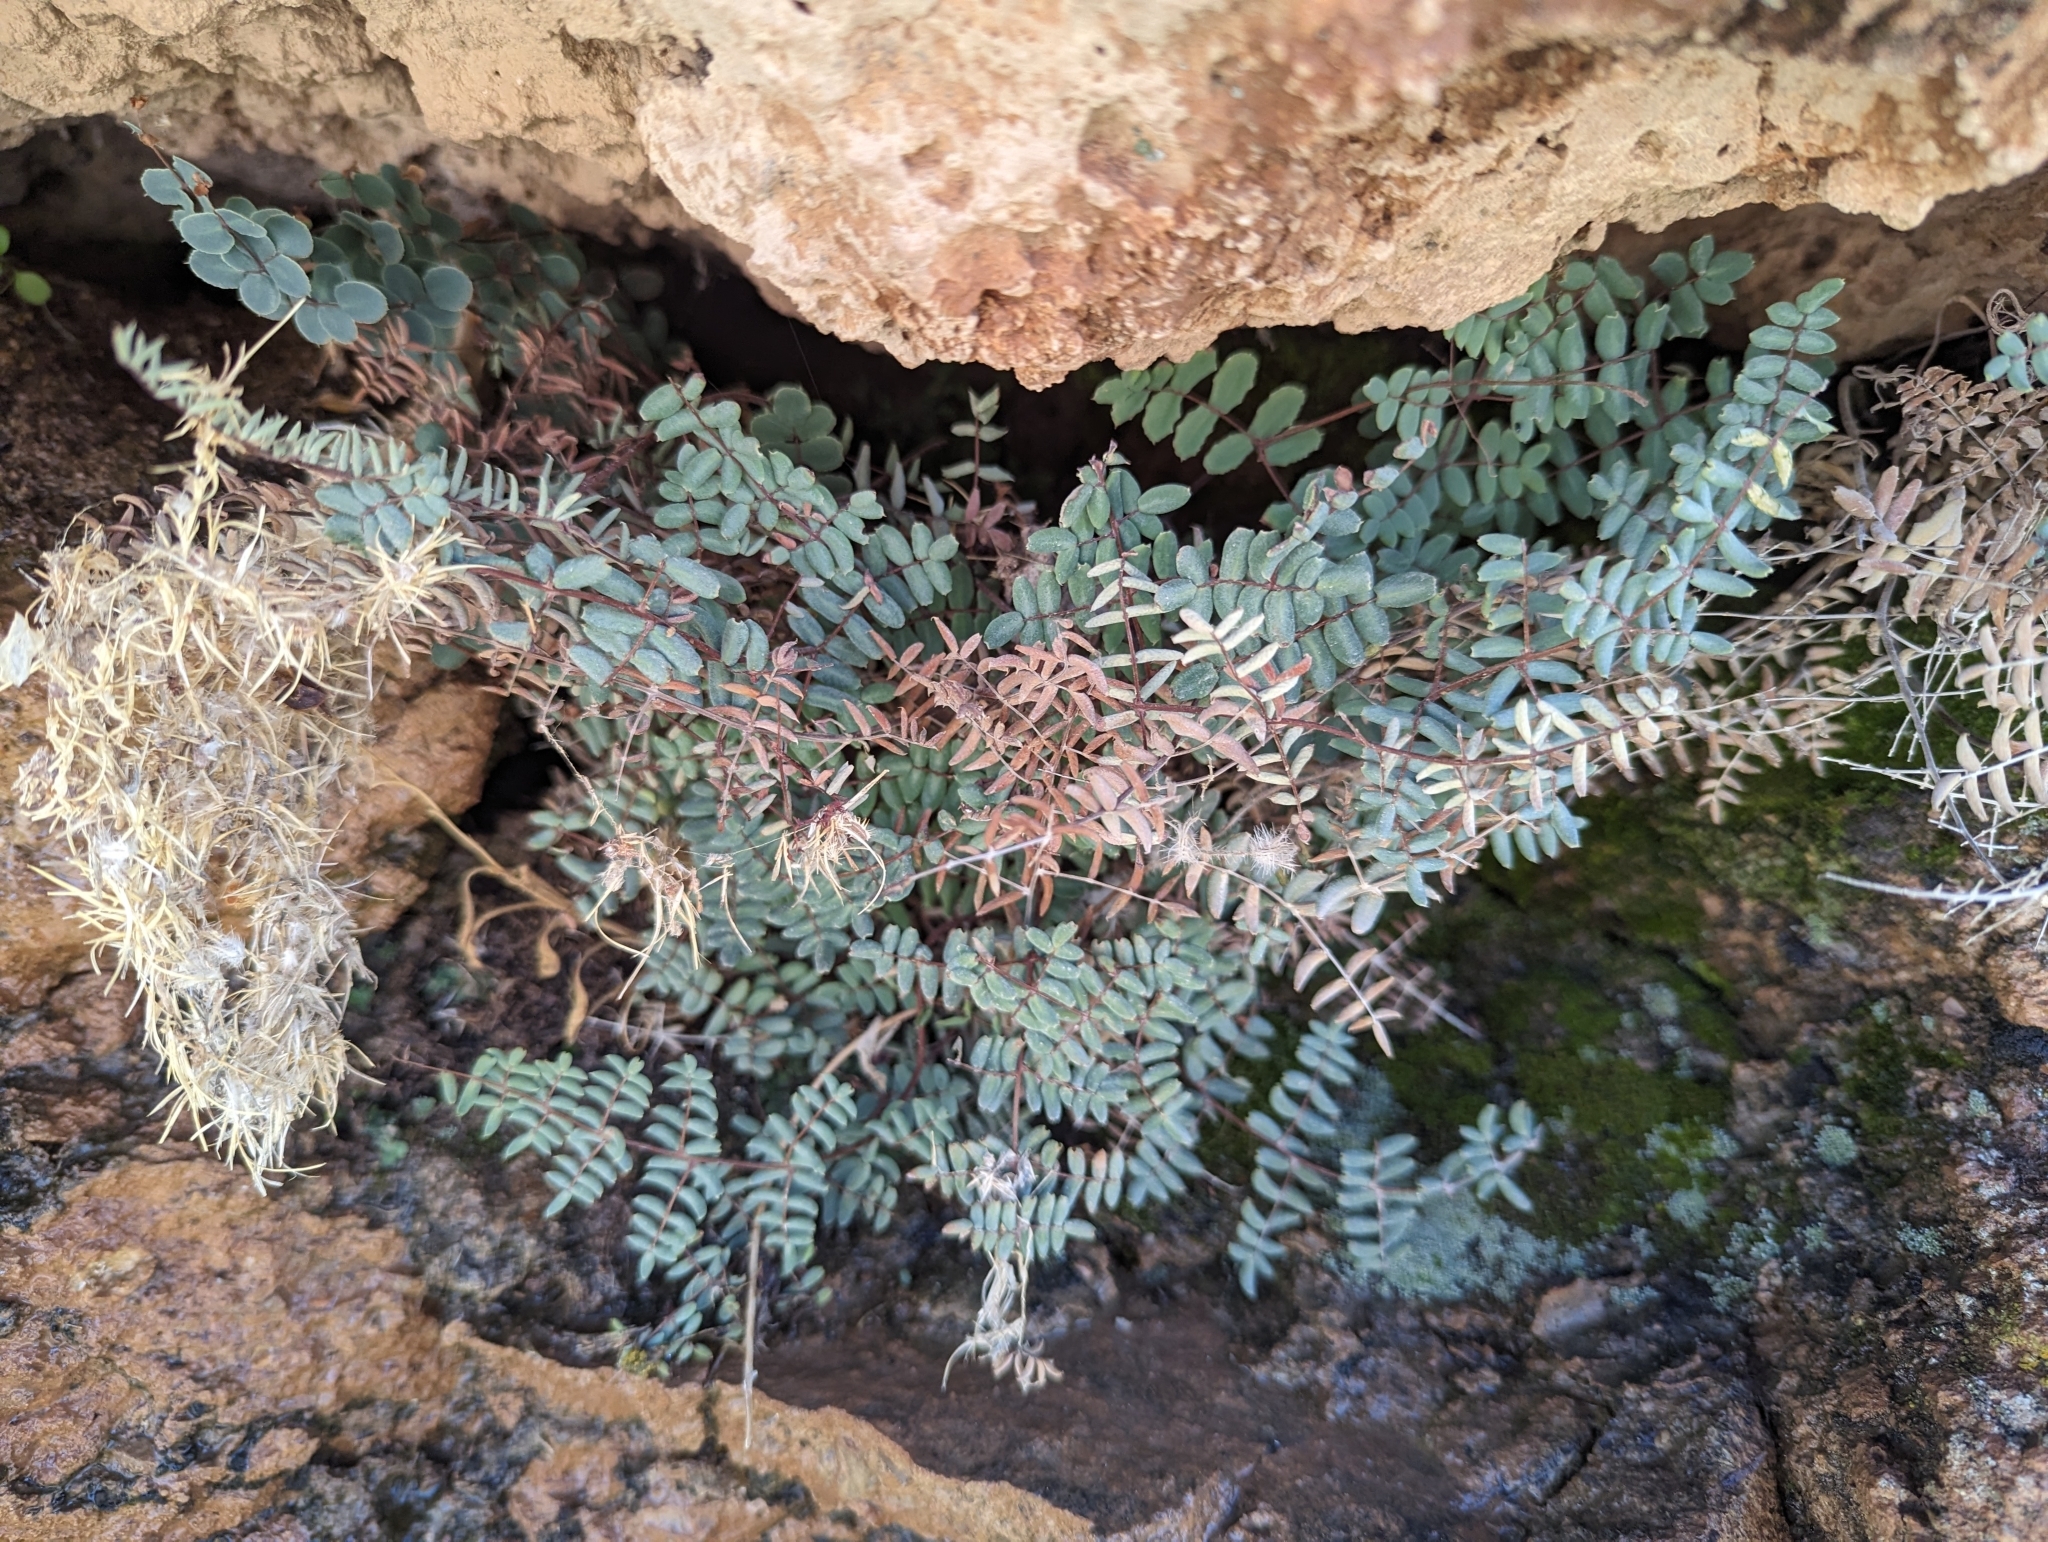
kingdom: Plantae
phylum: Tracheophyta
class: Polypodiopsida
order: Polypodiales
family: Pteridaceae
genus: Pellaea
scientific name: Pellaea truncata
